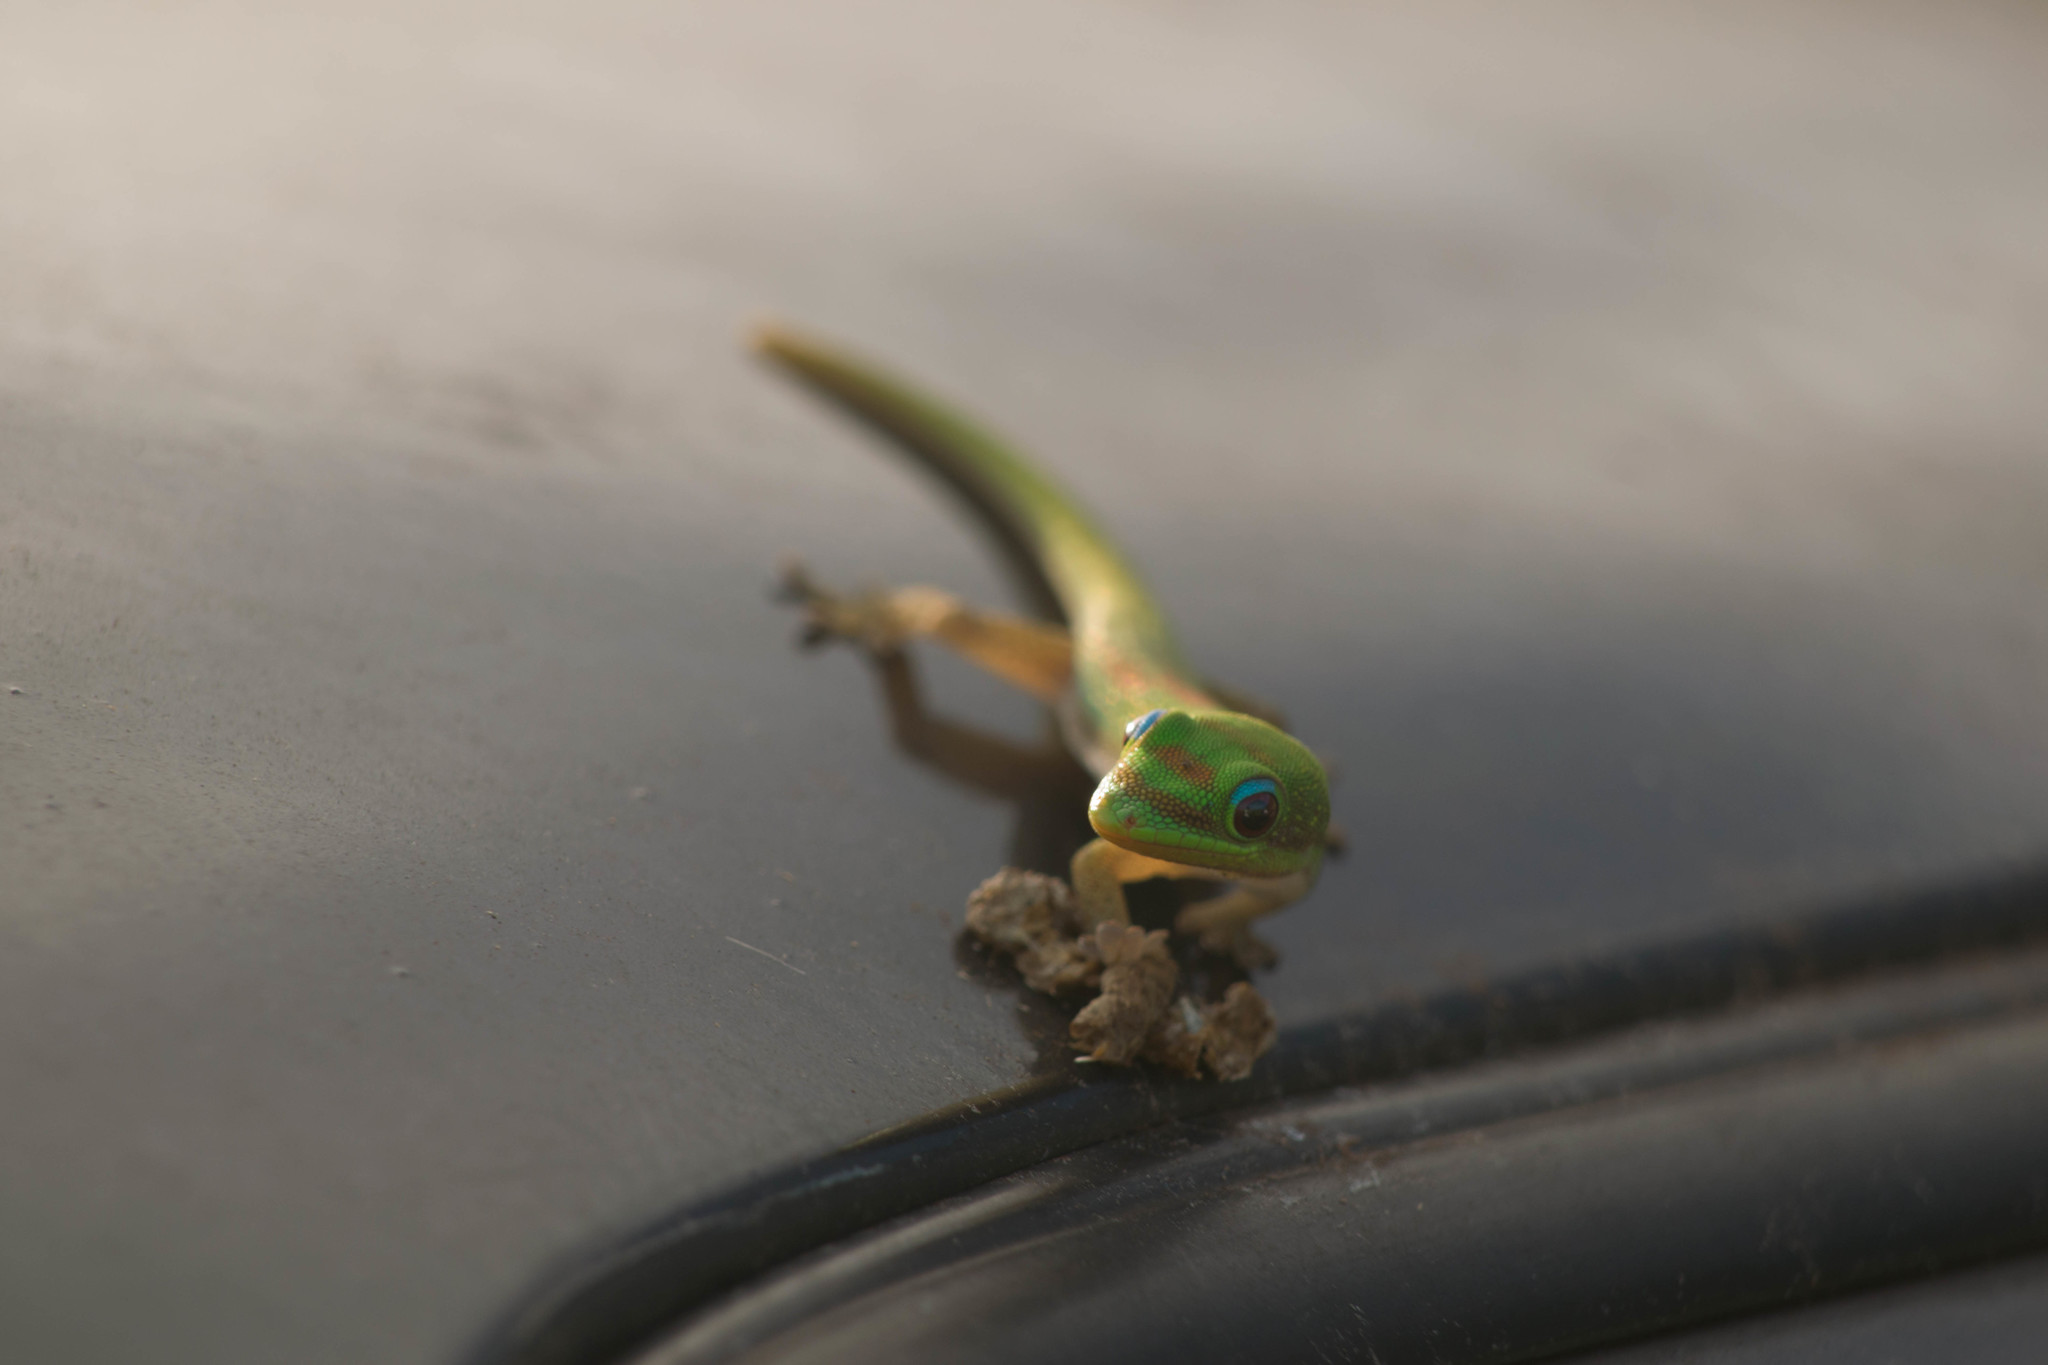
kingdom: Animalia
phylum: Chordata
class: Squamata
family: Gekkonidae
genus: Phelsuma
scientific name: Phelsuma laticauda
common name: Gold dust day gecko
